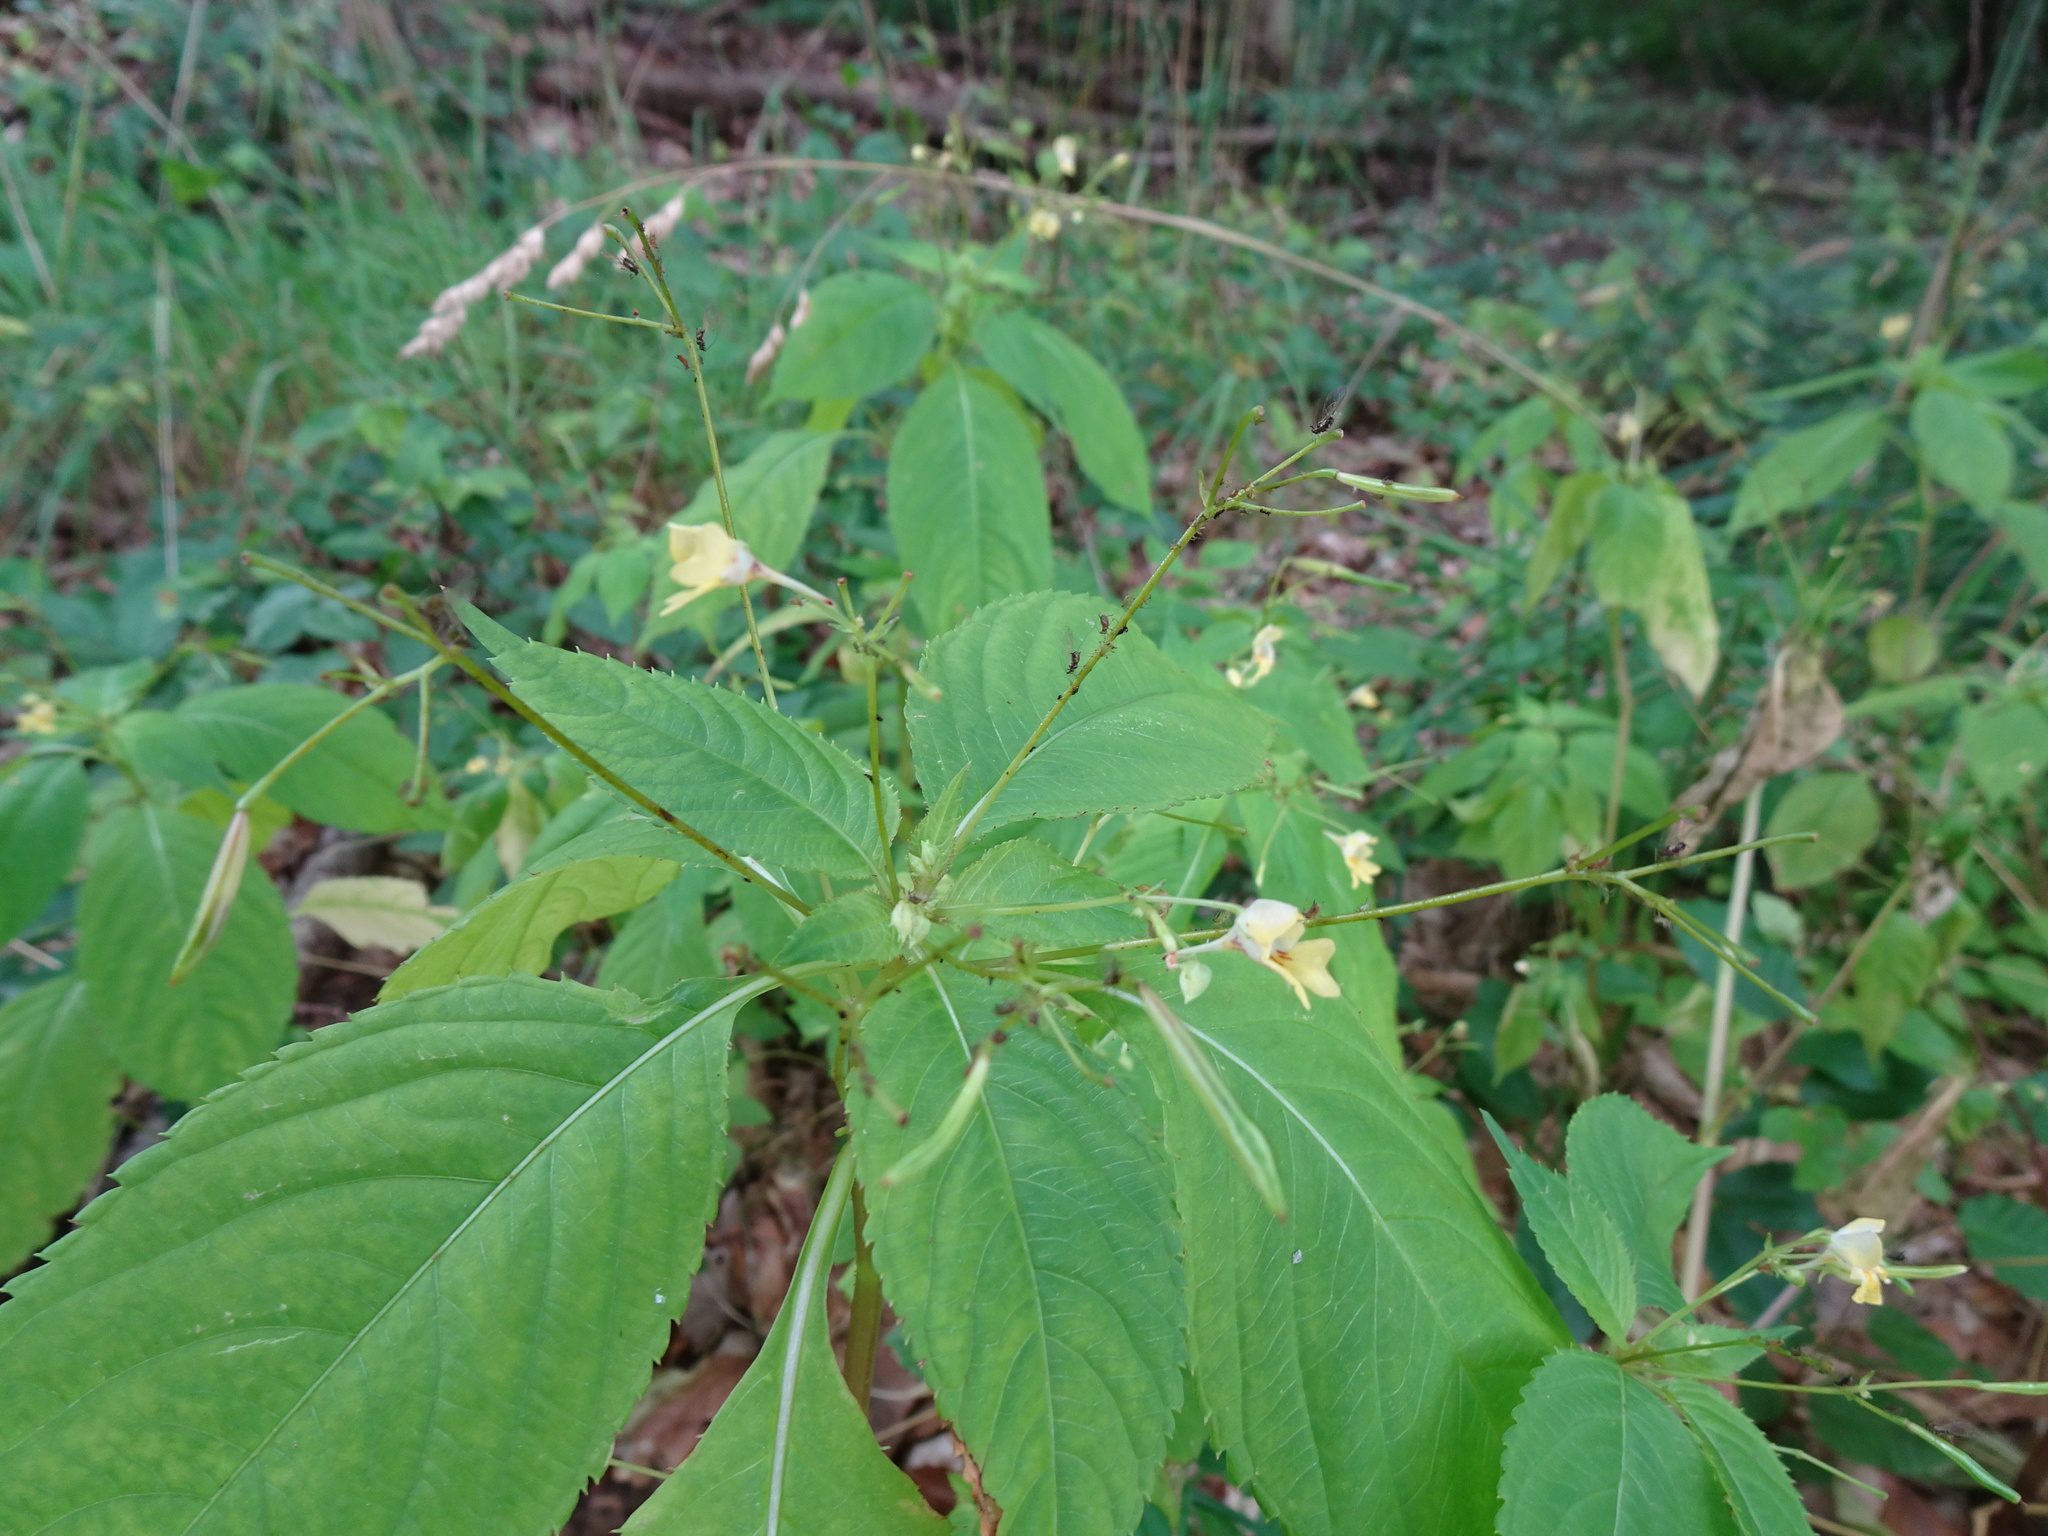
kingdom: Plantae
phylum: Tracheophyta
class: Magnoliopsida
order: Ericales
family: Balsaminaceae
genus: Impatiens
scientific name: Impatiens parviflora
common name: Small balsam
